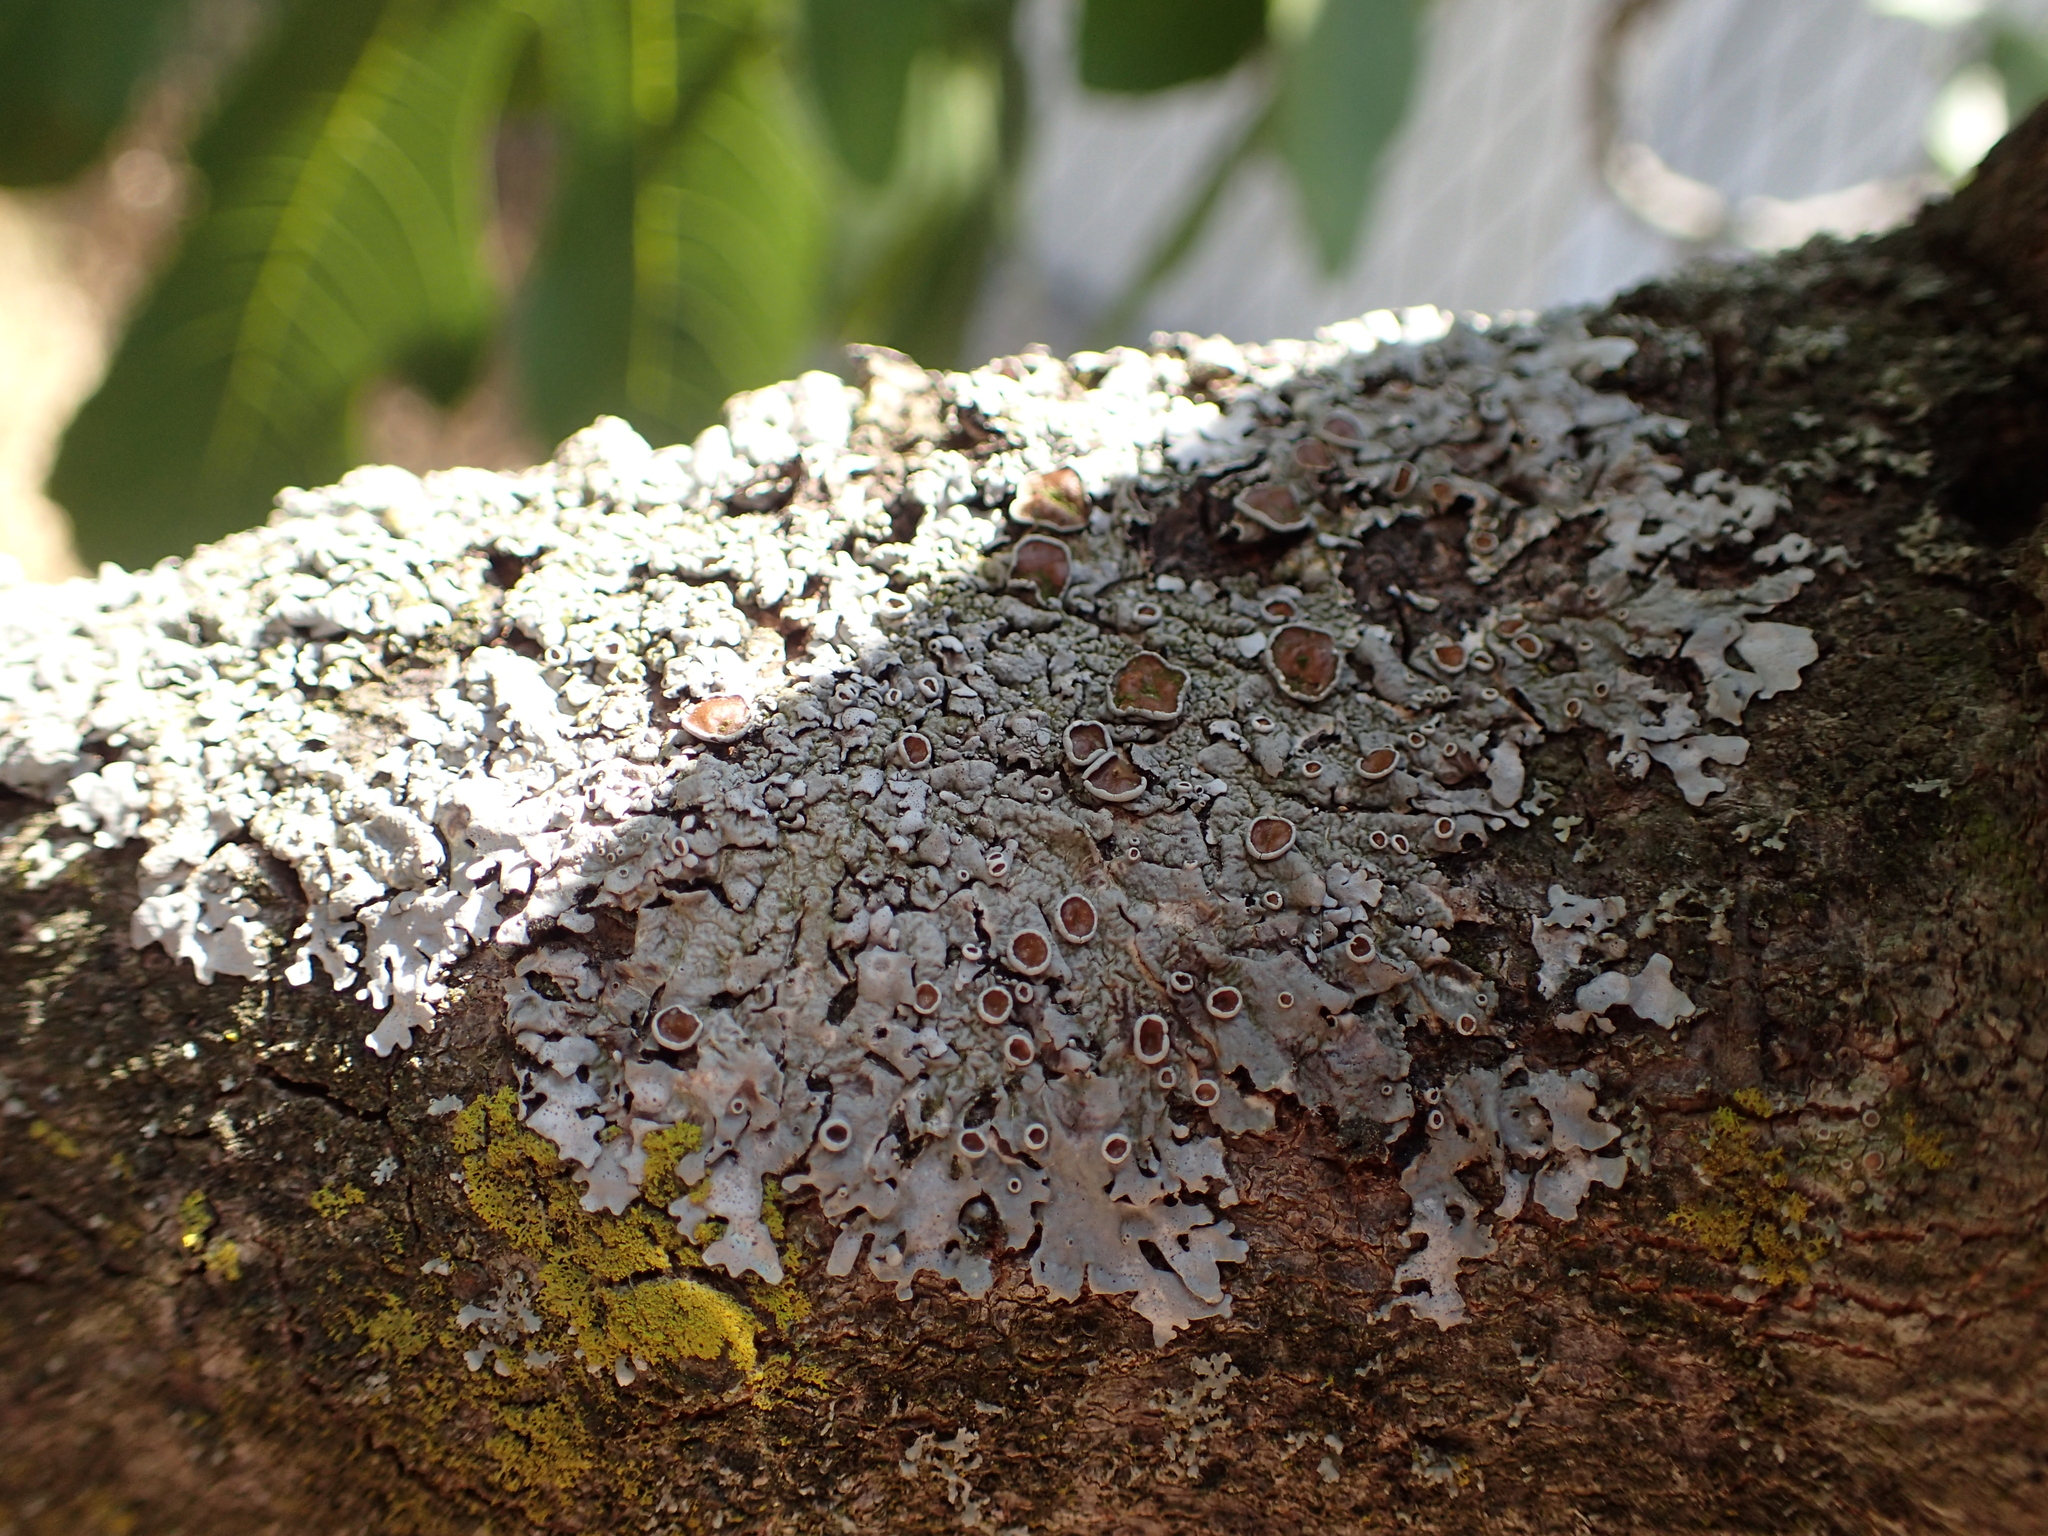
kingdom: Fungi
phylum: Ascomycota
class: Lecanoromycetes
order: Lecanorales
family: Parmeliaceae
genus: Parmelina
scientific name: Parmelina quercina
